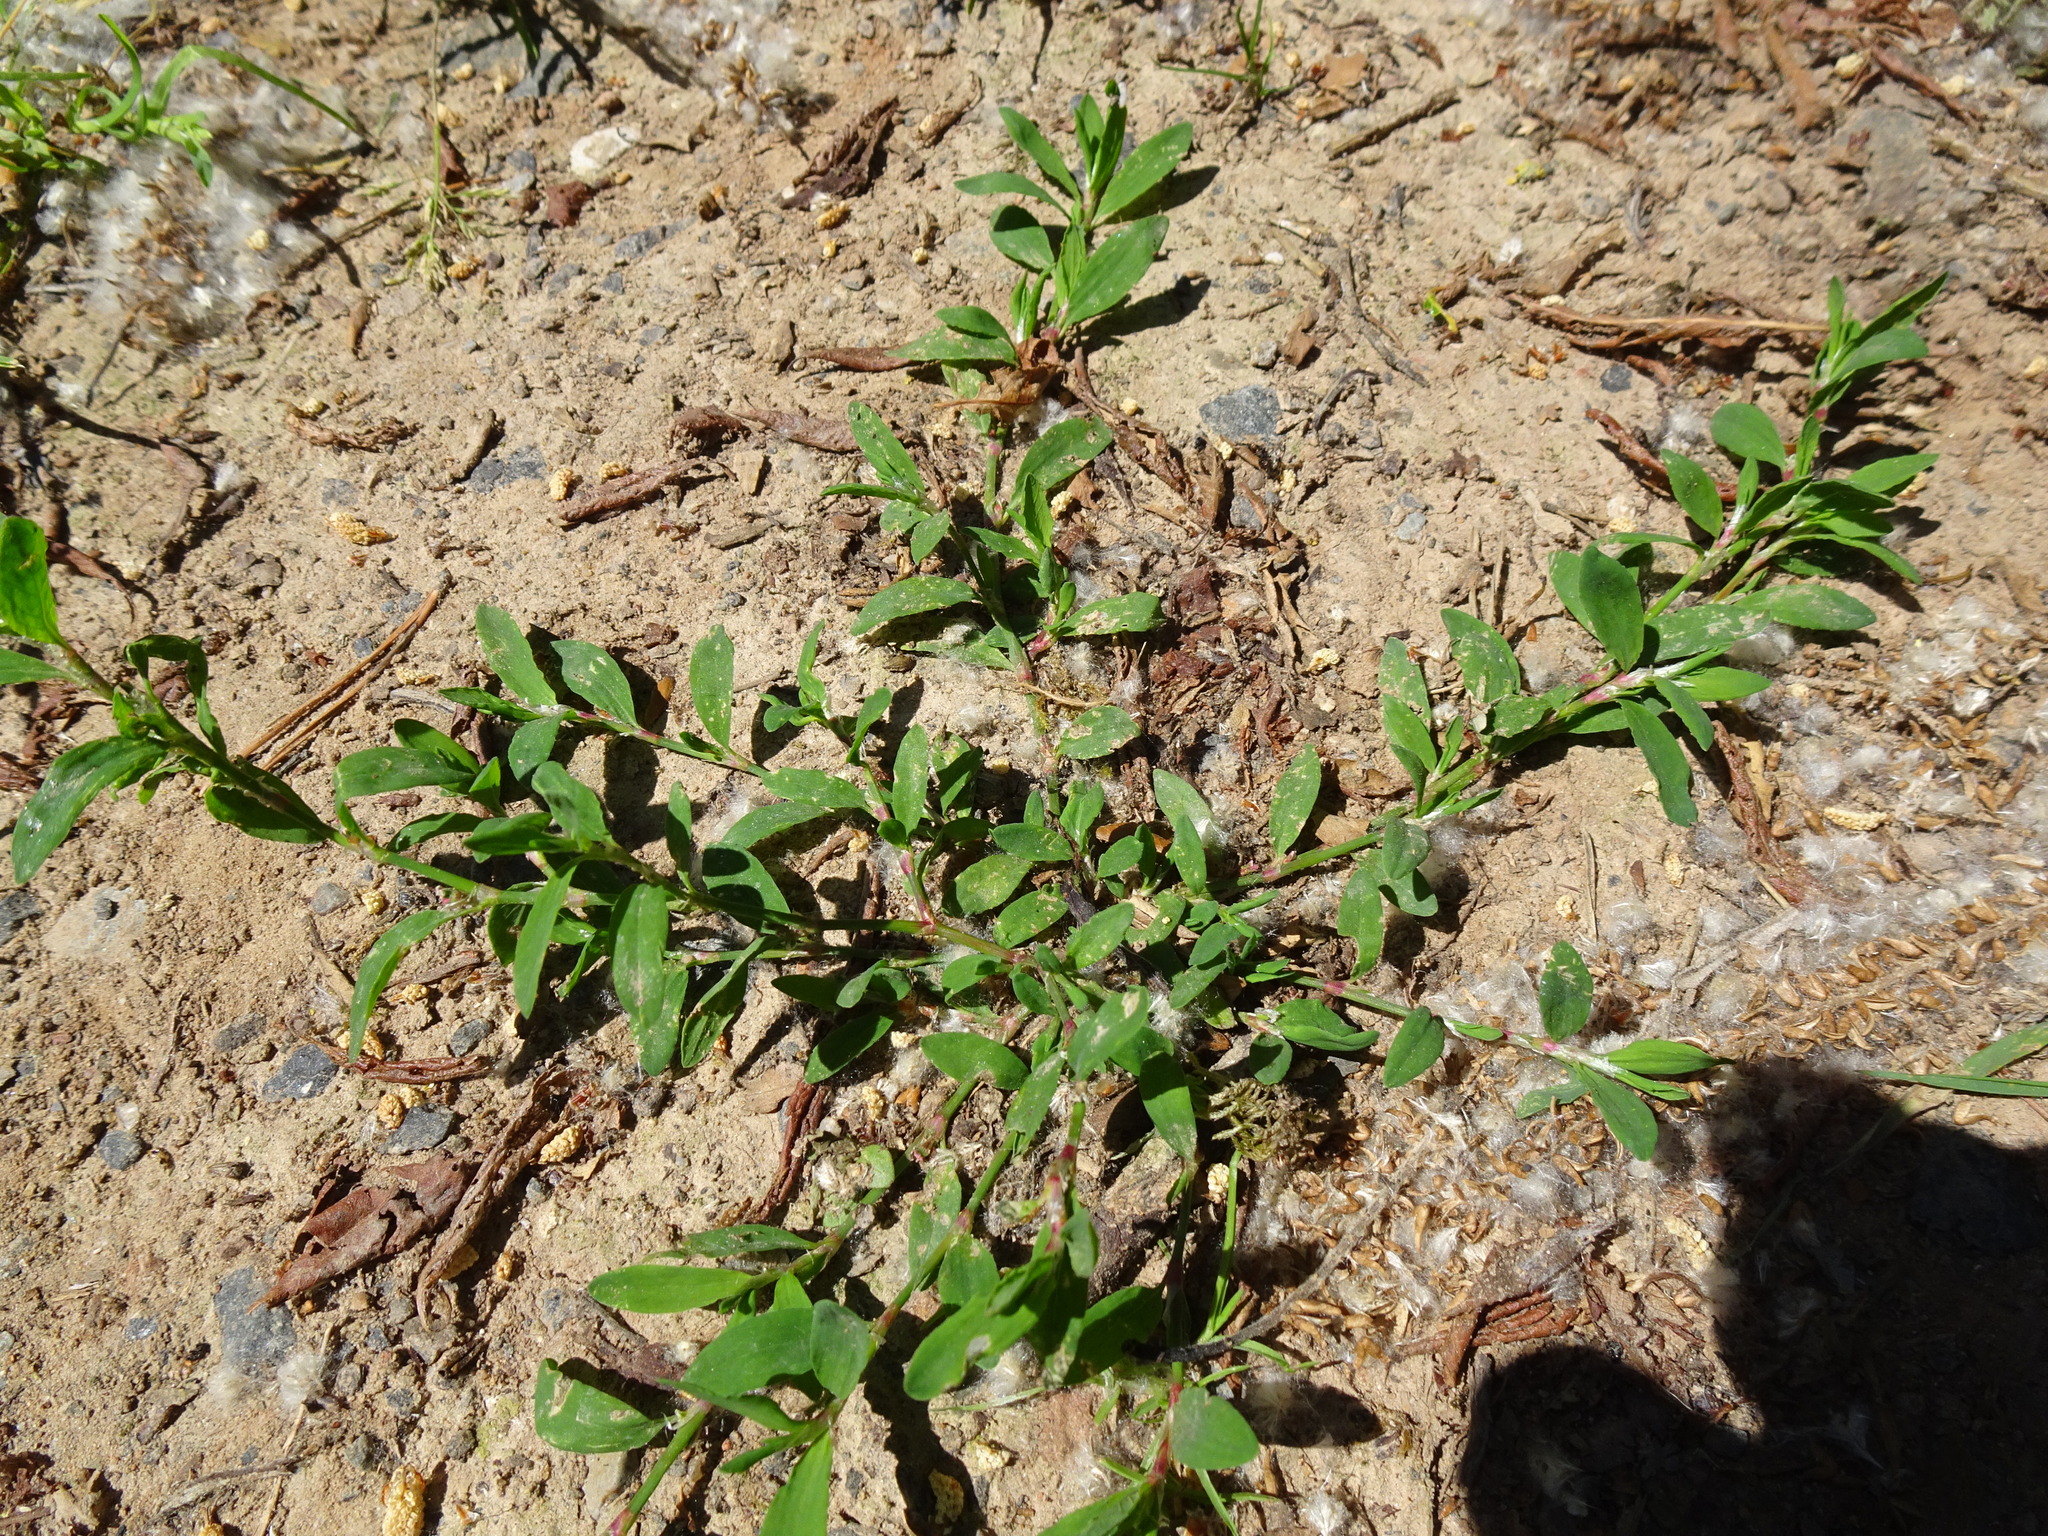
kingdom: Plantae
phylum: Tracheophyta
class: Magnoliopsida
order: Caryophyllales
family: Polygonaceae
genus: Polygonum
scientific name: Polygonum aviculare
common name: Prostrate knotweed
